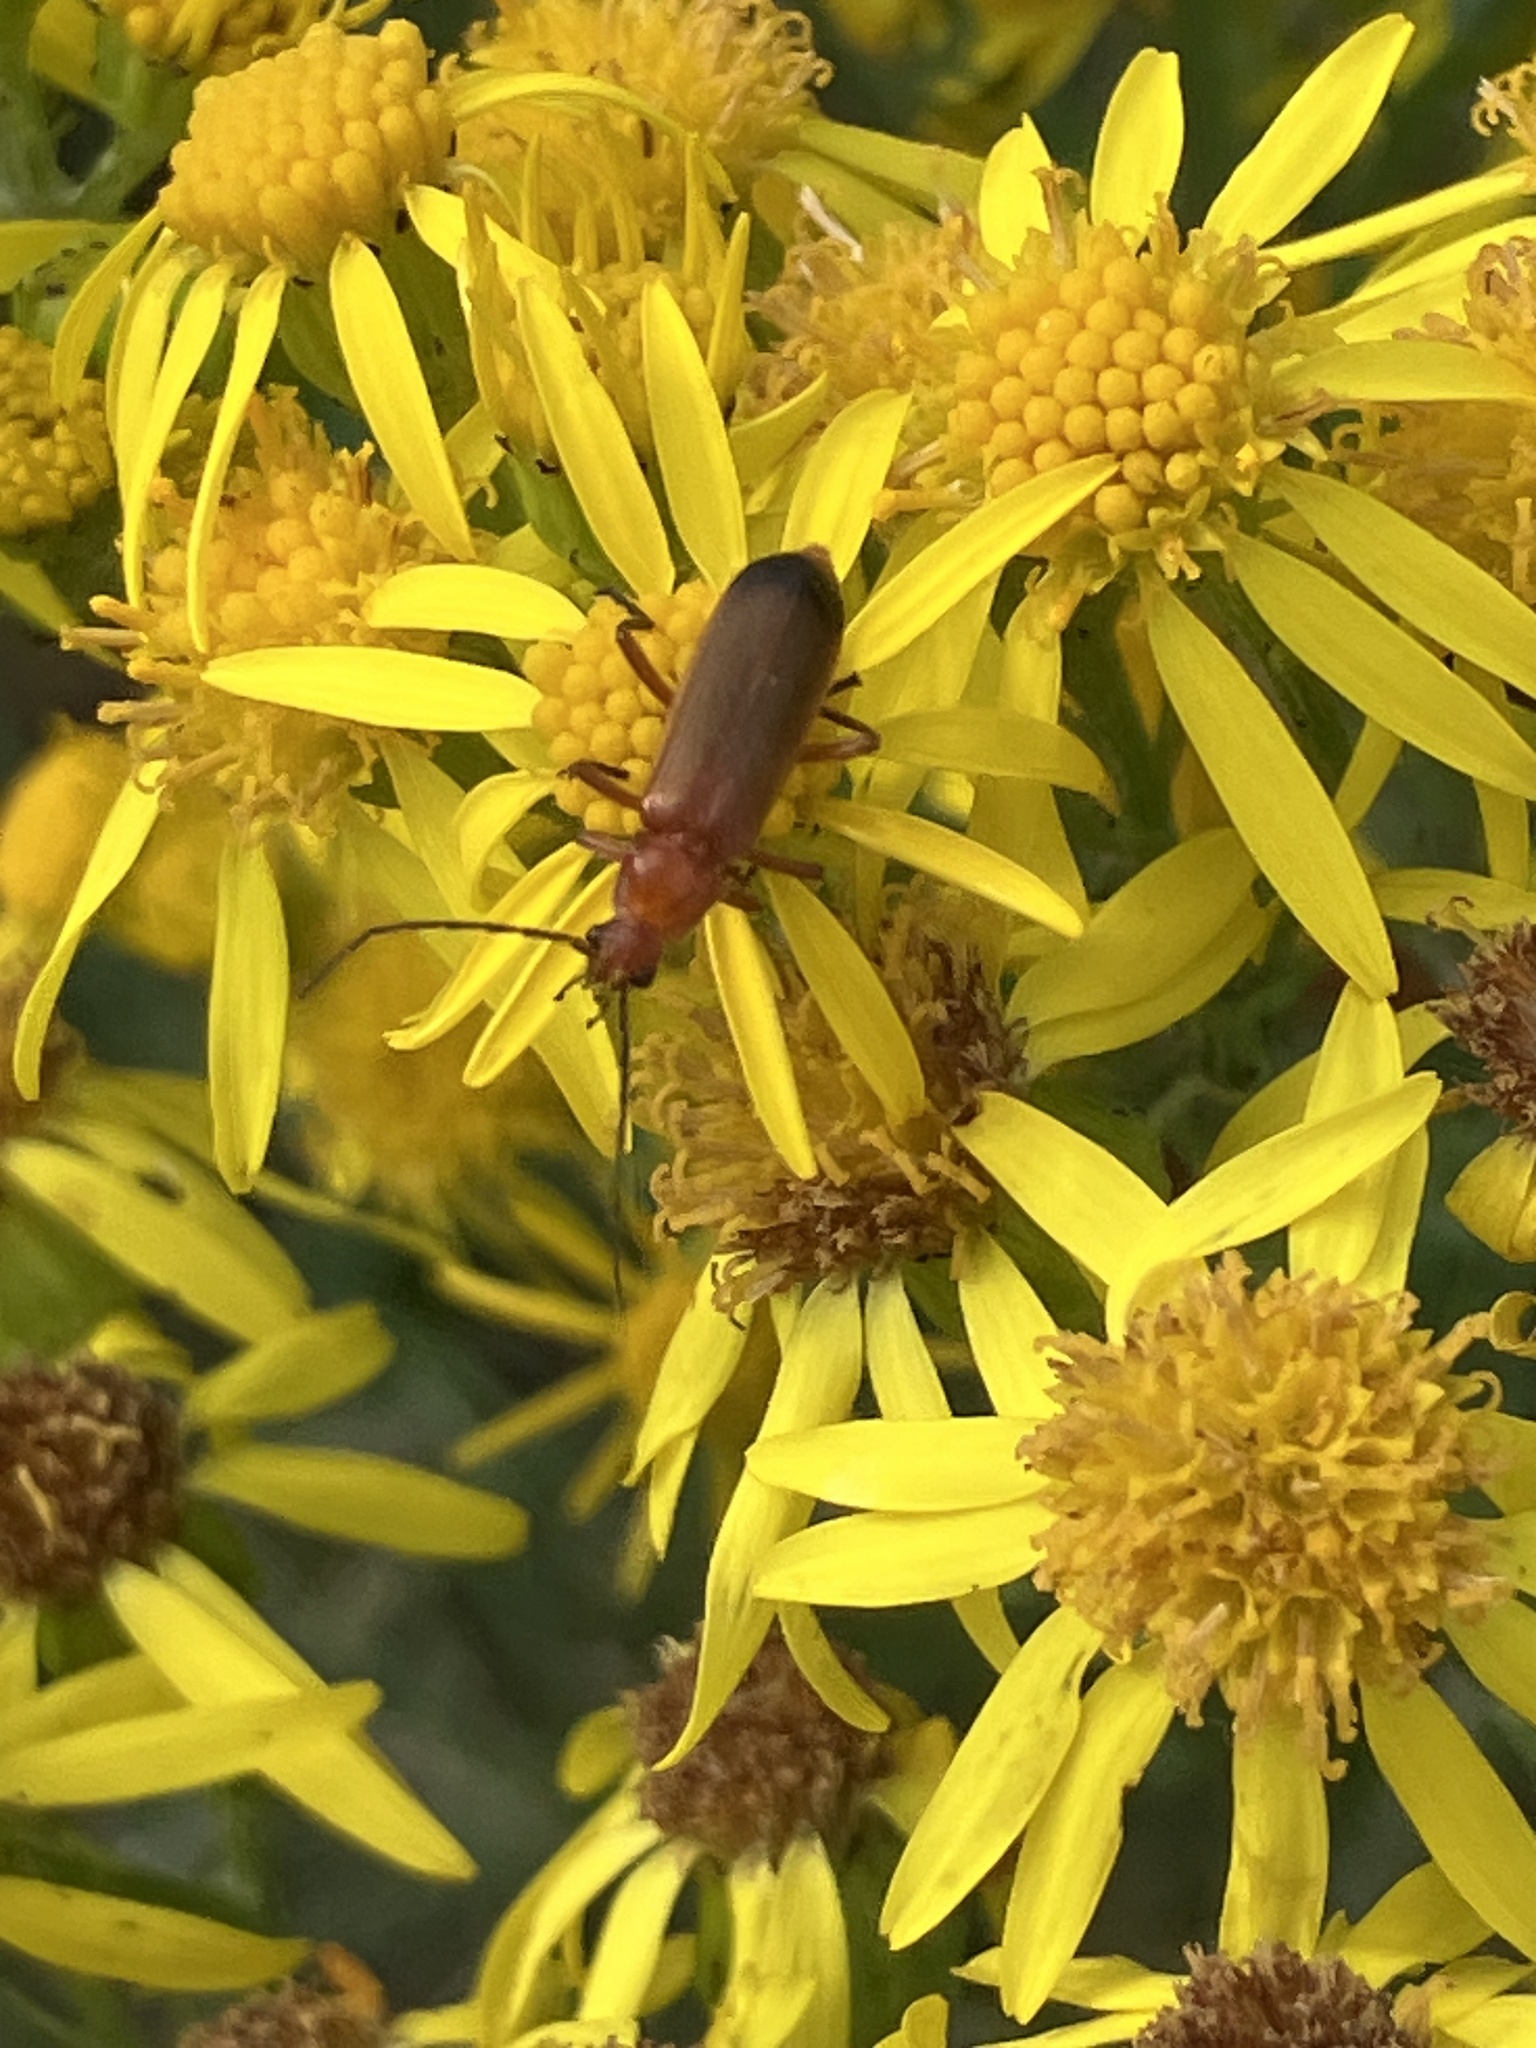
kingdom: Animalia
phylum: Arthropoda
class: Insecta
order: Coleoptera
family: Cantharidae
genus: Rhagonycha
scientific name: Rhagonycha fulva
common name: Common red soldier beetle
